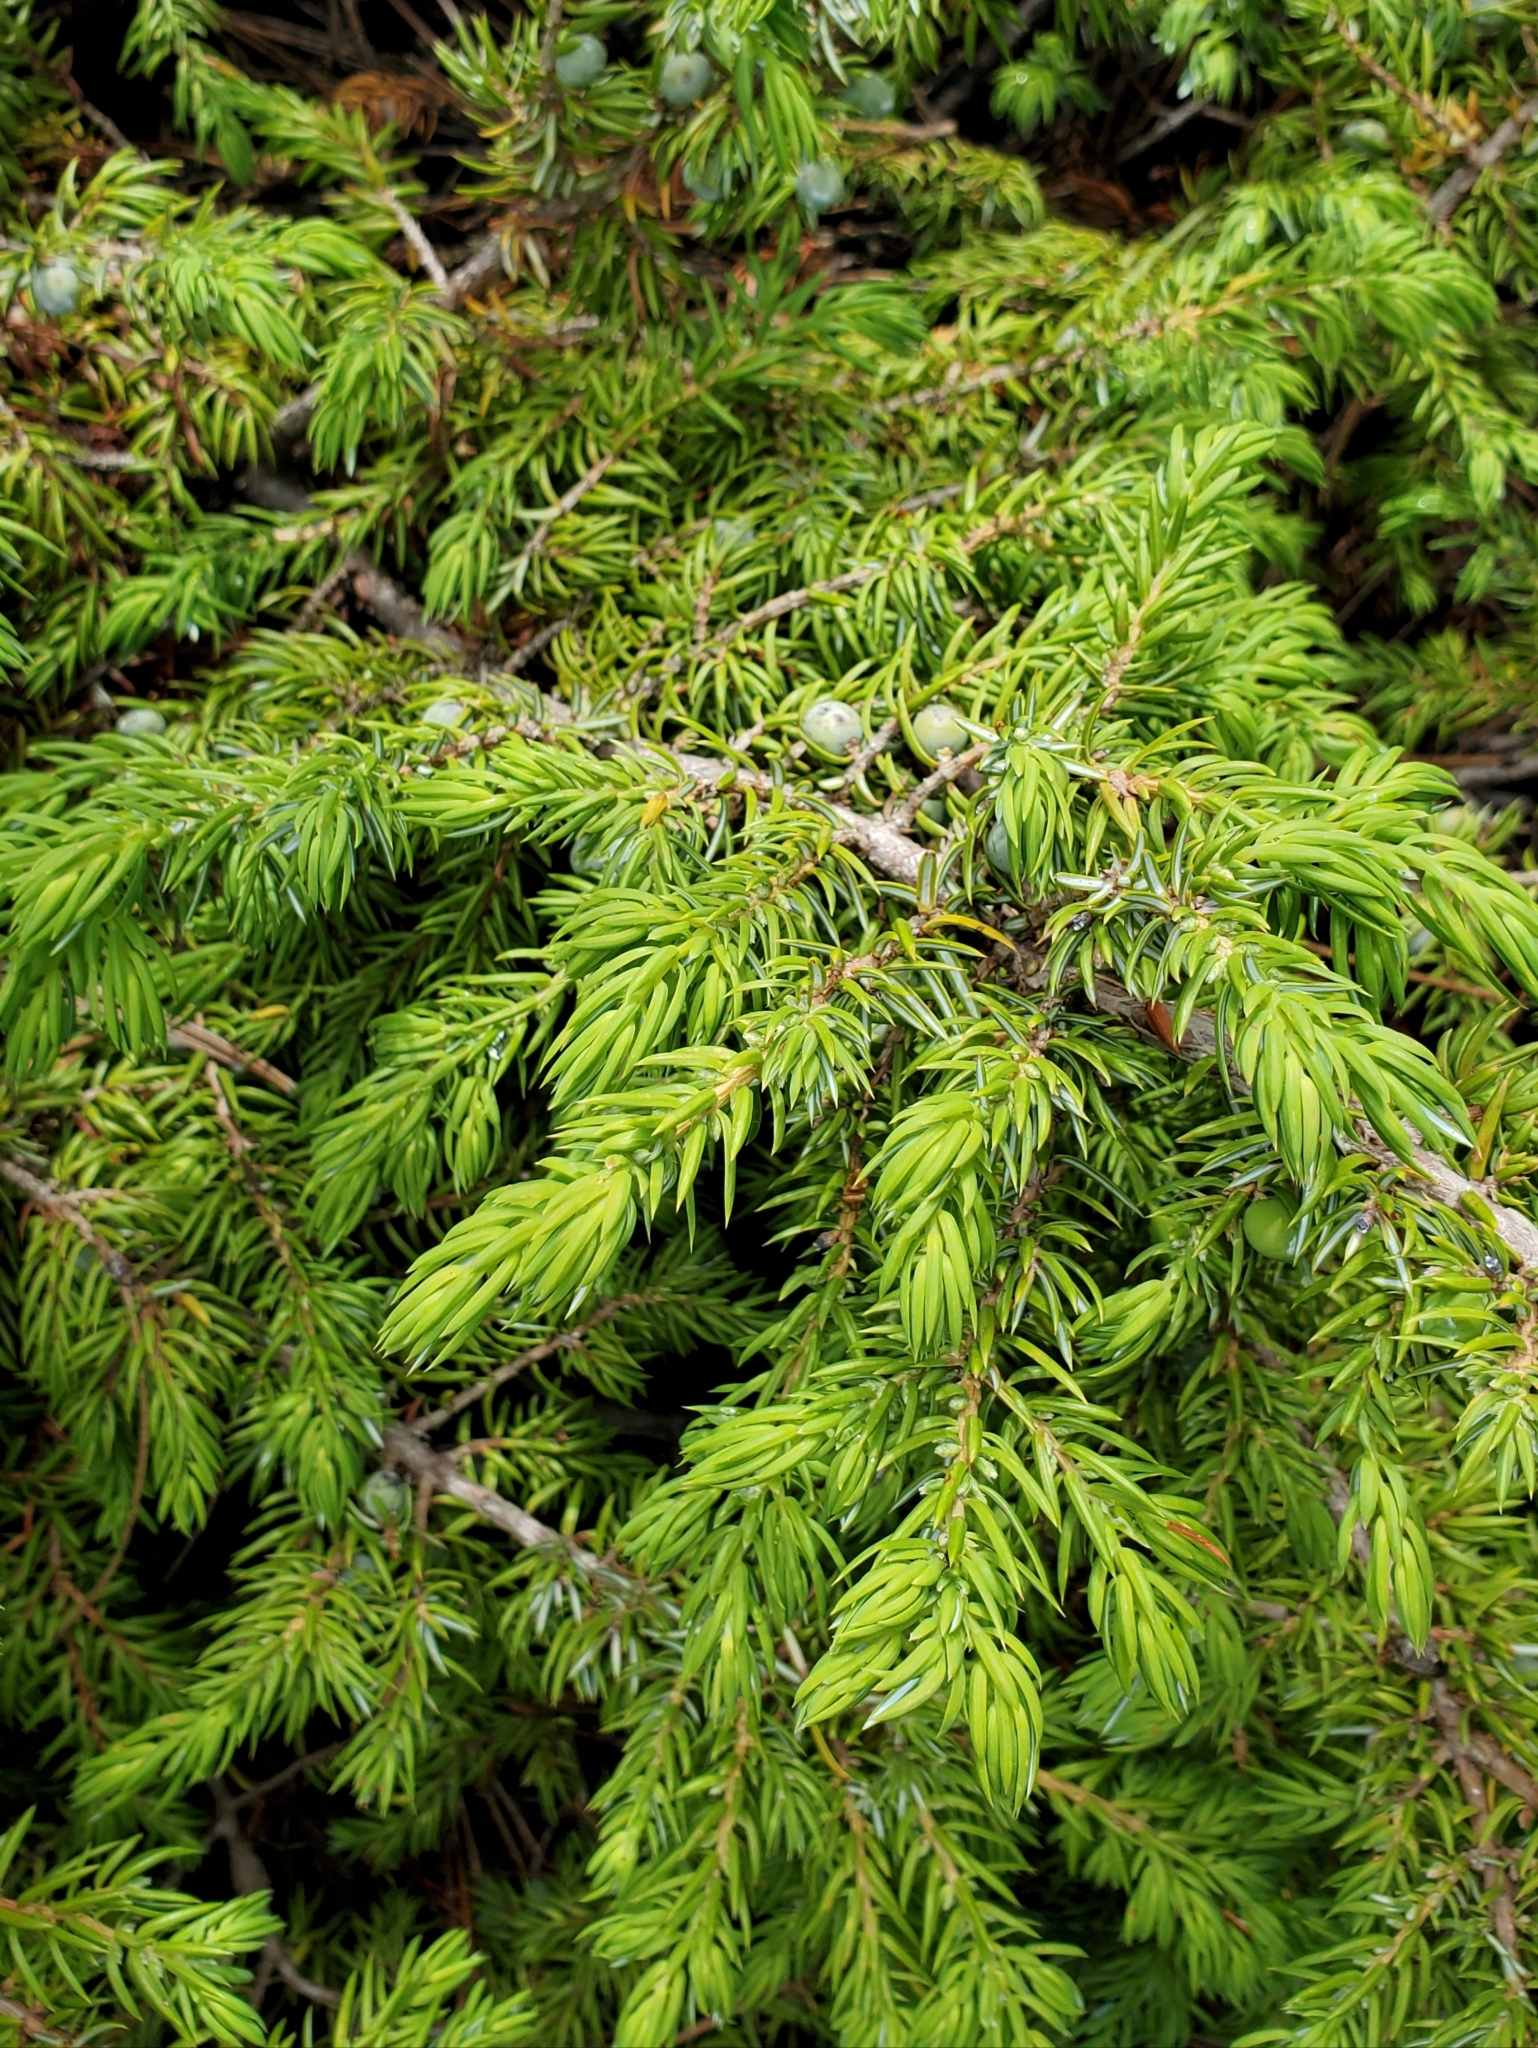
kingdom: Plantae
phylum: Tracheophyta
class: Pinopsida
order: Pinales
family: Cupressaceae
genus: Juniperus
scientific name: Juniperus communis
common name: Common juniper
